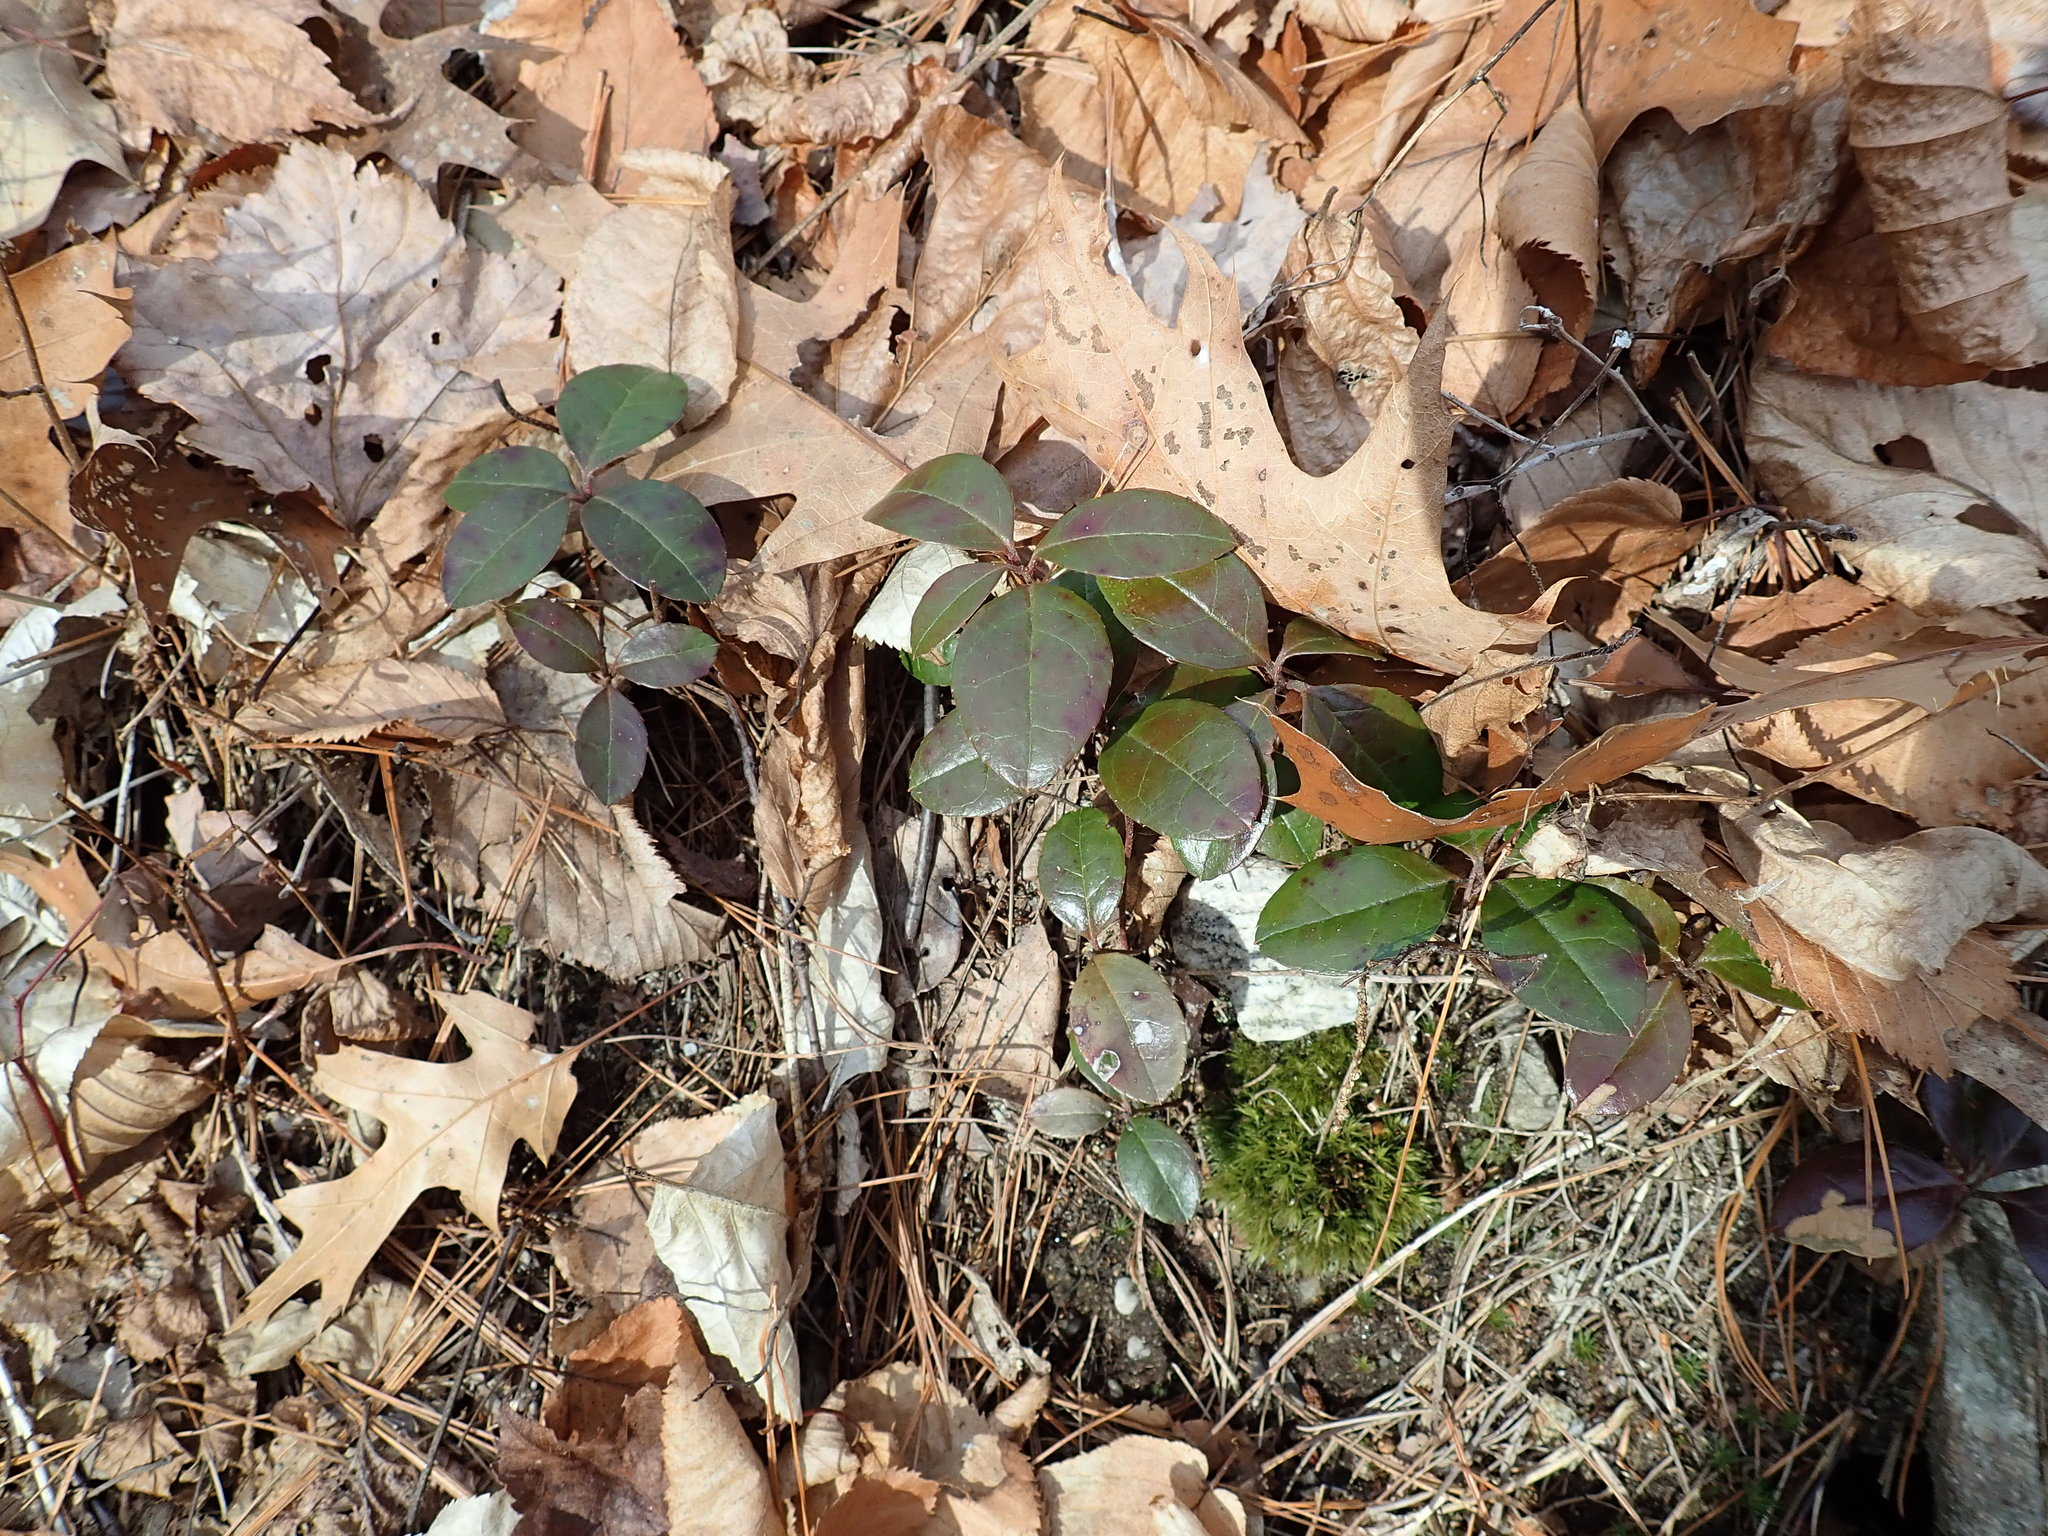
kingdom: Plantae
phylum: Tracheophyta
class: Magnoliopsida
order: Ericales
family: Ericaceae
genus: Gaultheria
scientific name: Gaultheria procumbens
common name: Checkerberry
